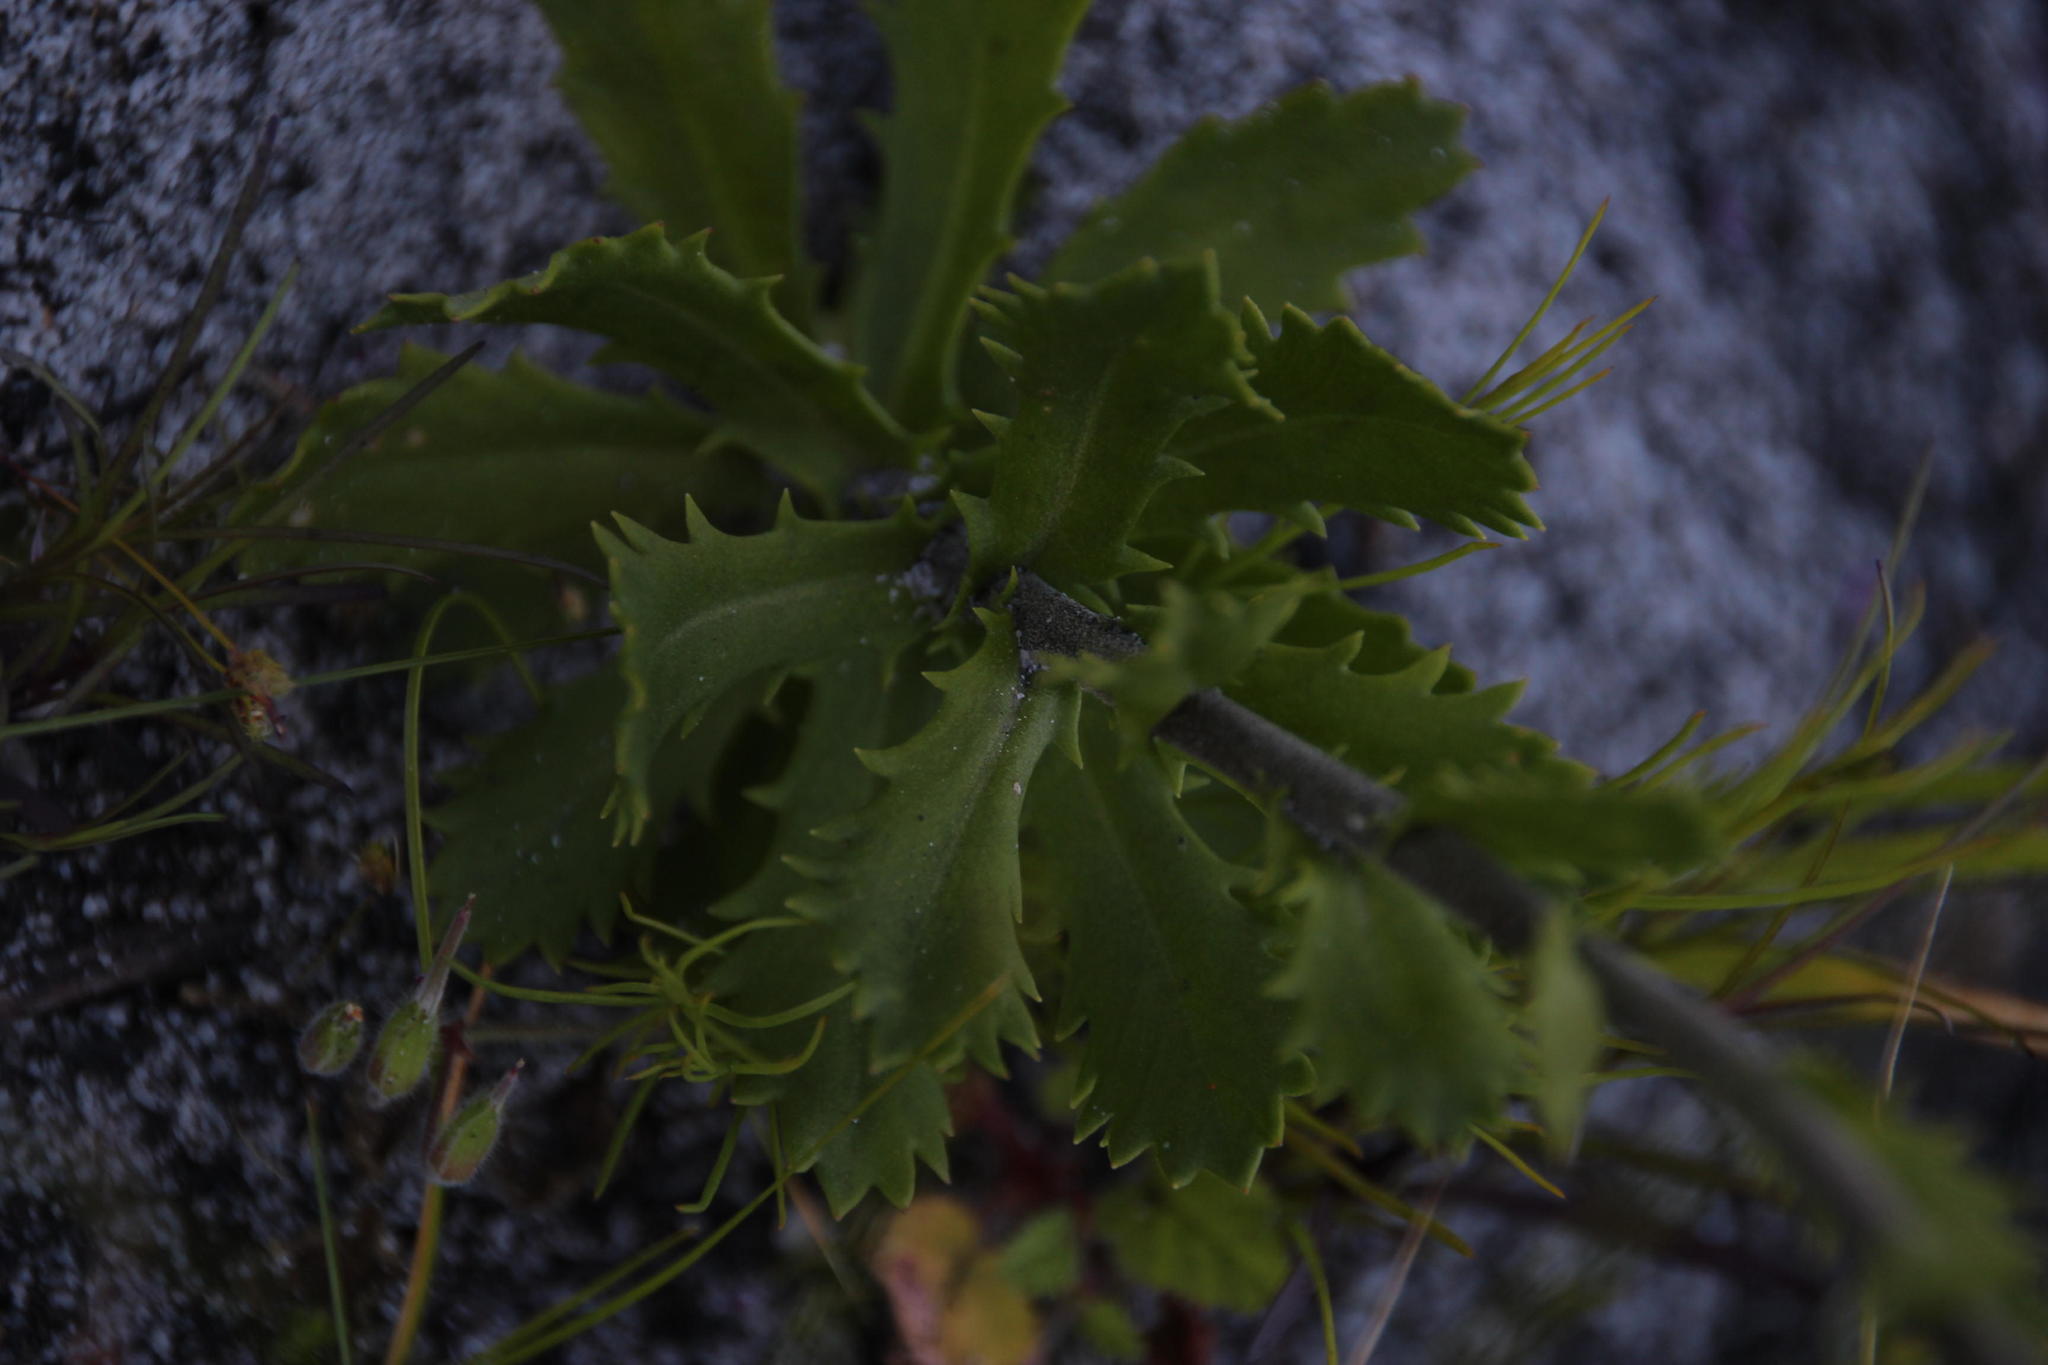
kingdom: Plantae
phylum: Tracheophyta
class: Magnoliopsida
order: Asterales
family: Asteraceae
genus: Osmitopsis
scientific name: Osmitopsis dentata
